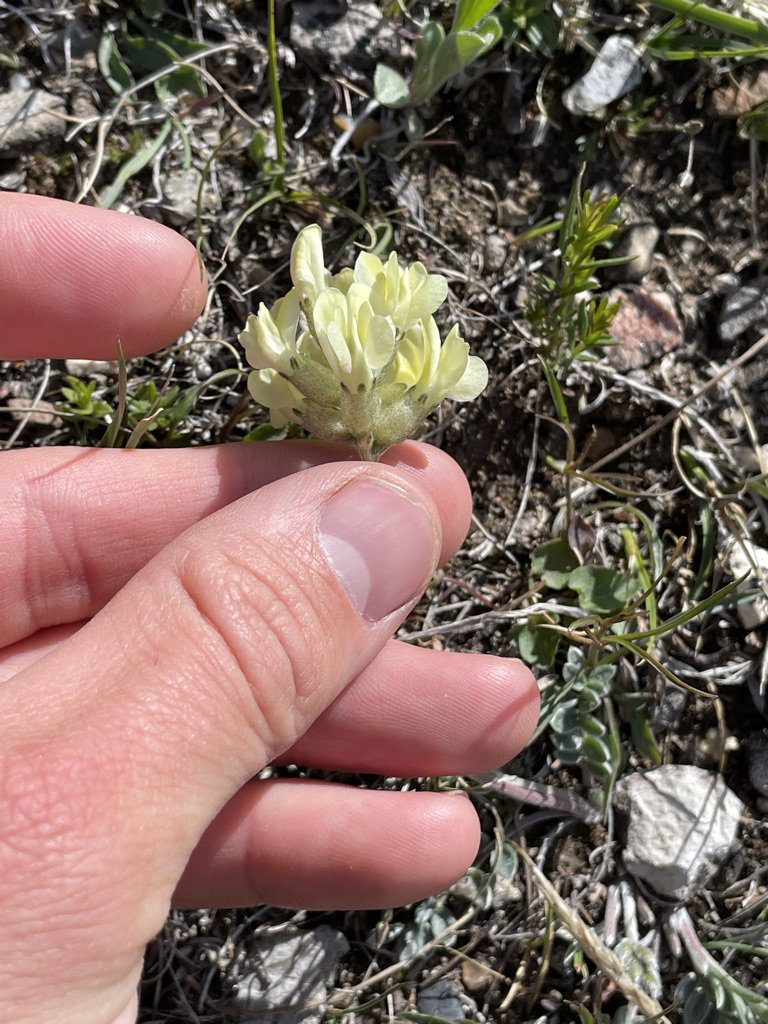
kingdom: Plantae
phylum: Tracheophyta
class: Magnoliopsida
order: Fabales
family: Fabaceae
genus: Oxytropis
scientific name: Oxytropis sericea
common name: Silky locoweed
